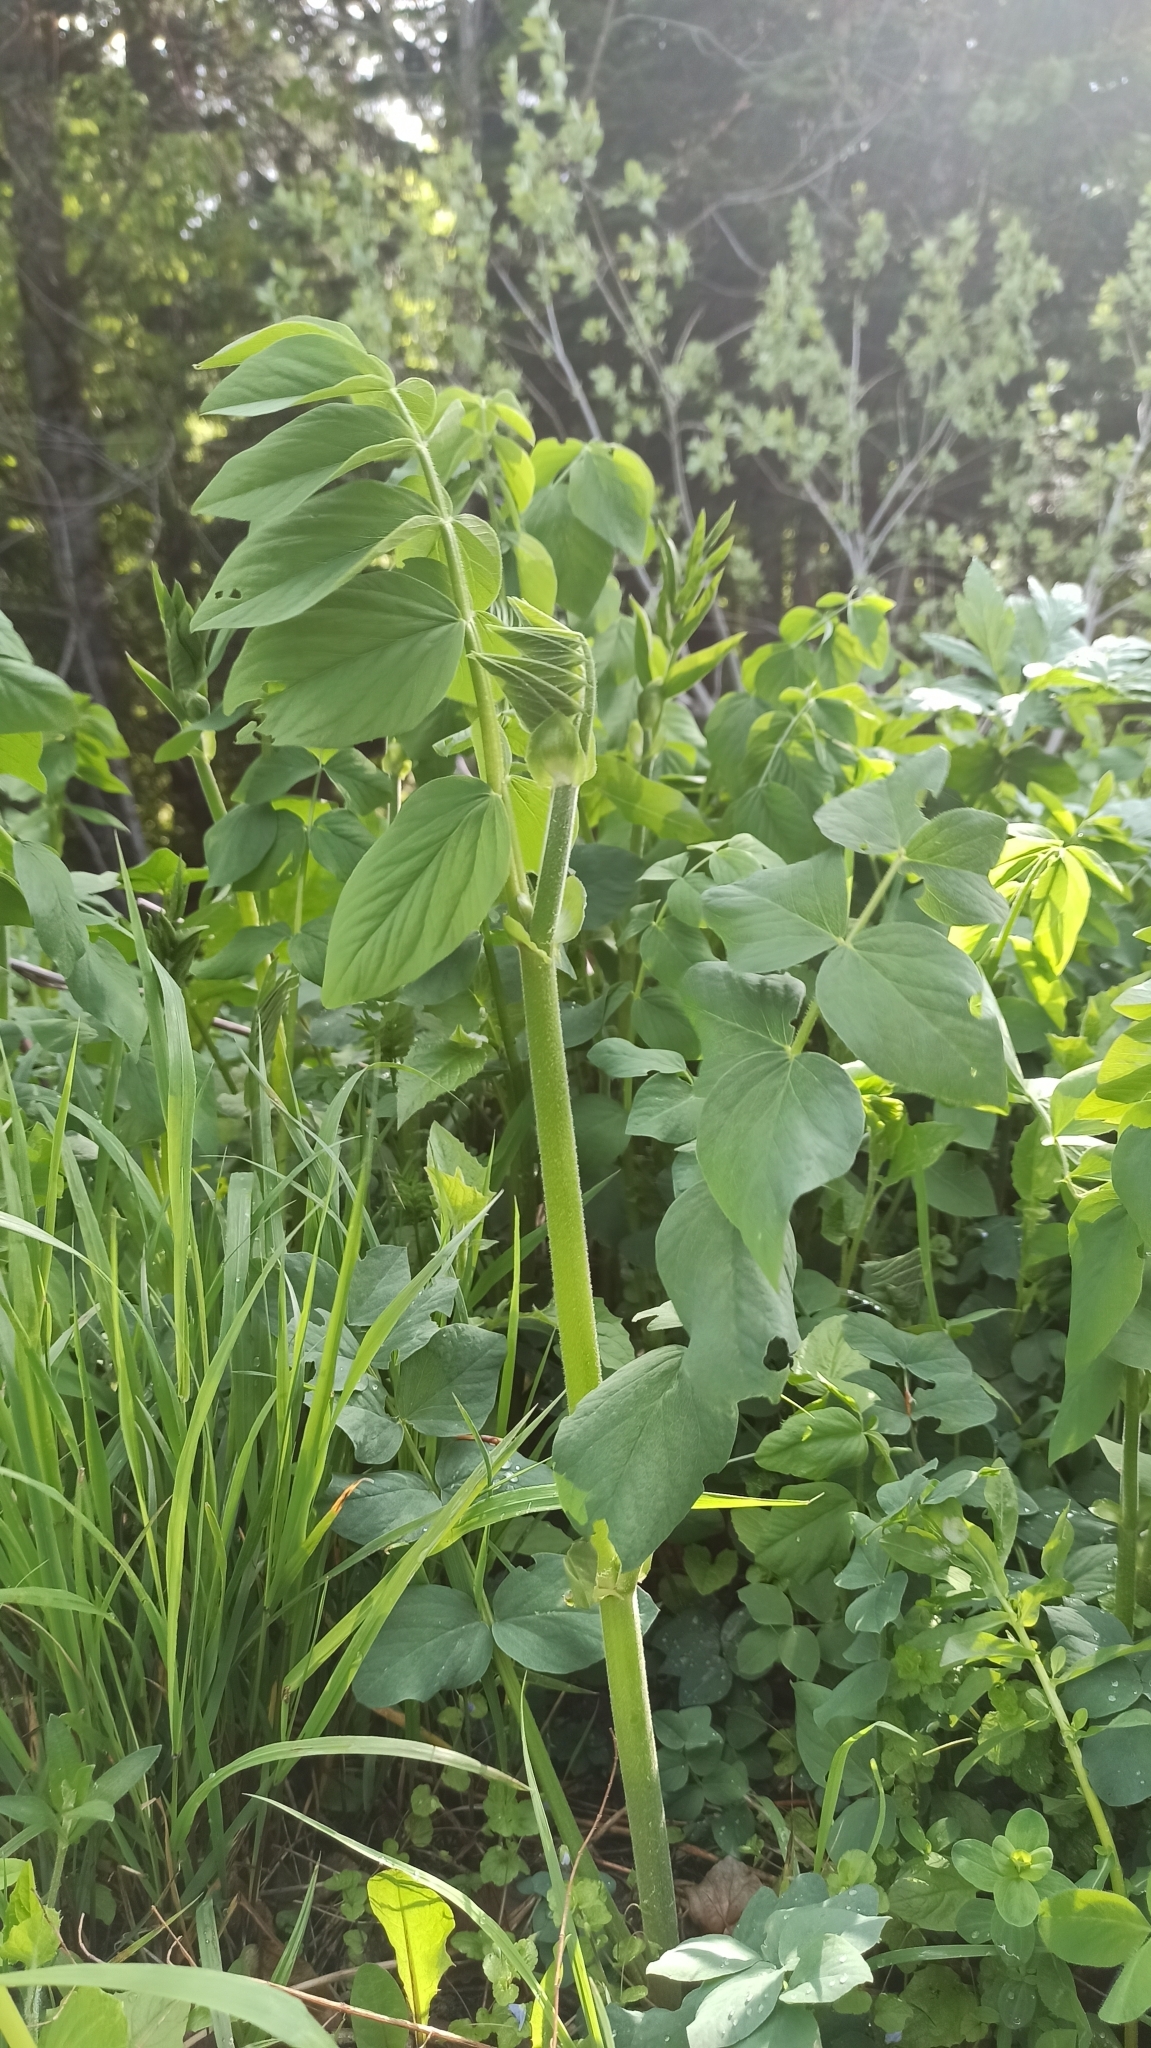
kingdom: Plantae
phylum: Tracheophyta
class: Magnoliopsida
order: Fabales
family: Fabaceae
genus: Galega
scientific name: Galega orientalis
